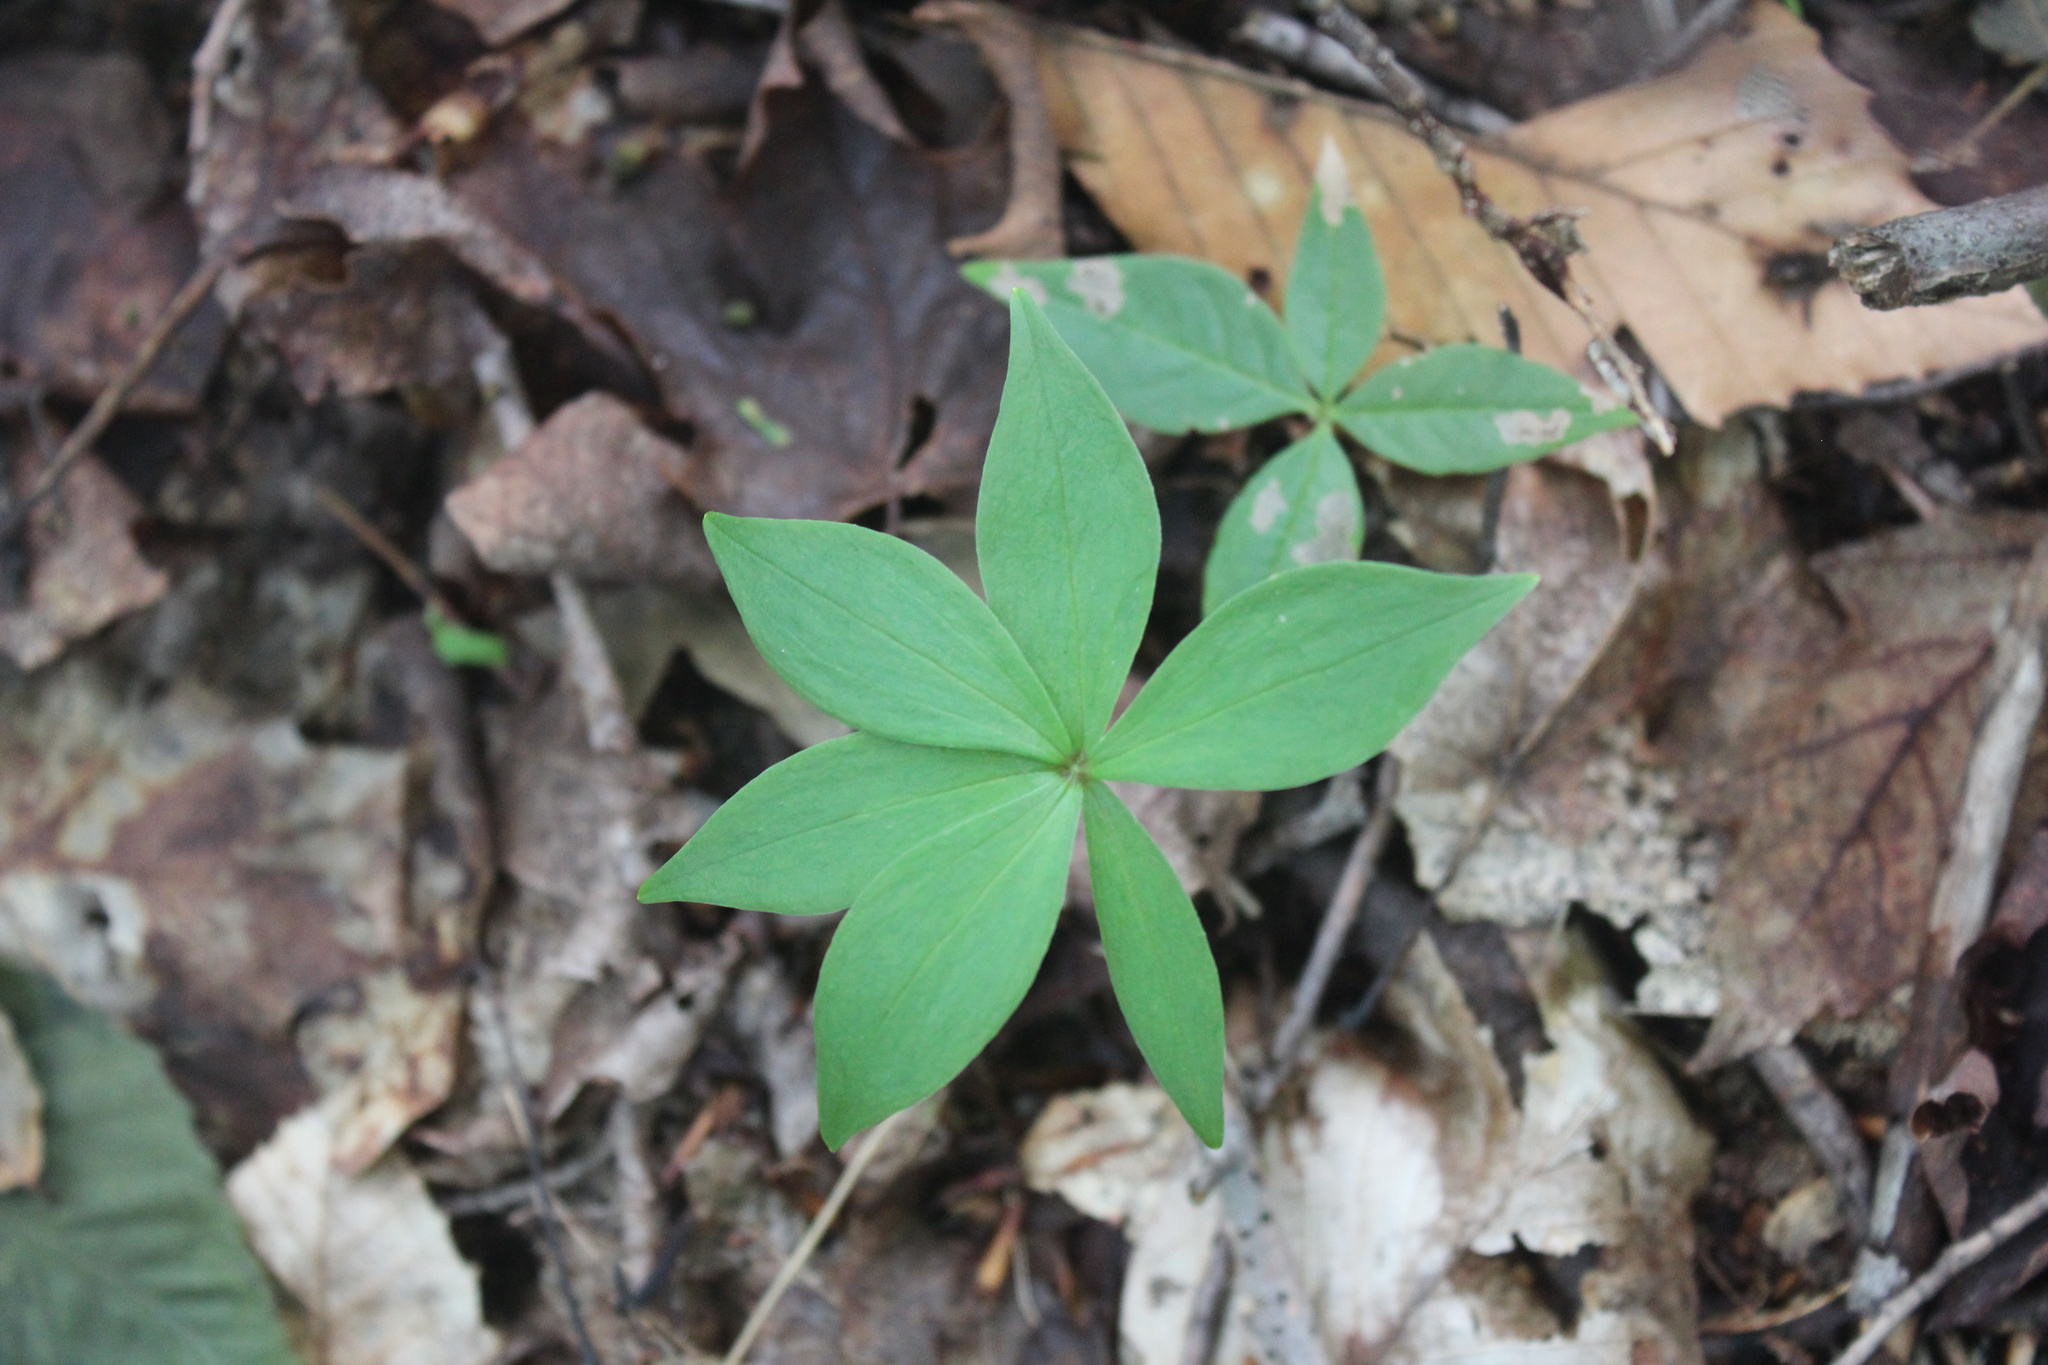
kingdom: Plantae
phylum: Tracheophyta
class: Liliopsida
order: Liliales
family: Liliaceae
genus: Medeola
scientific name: Medeola virginiana
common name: Indian cucumber-root
